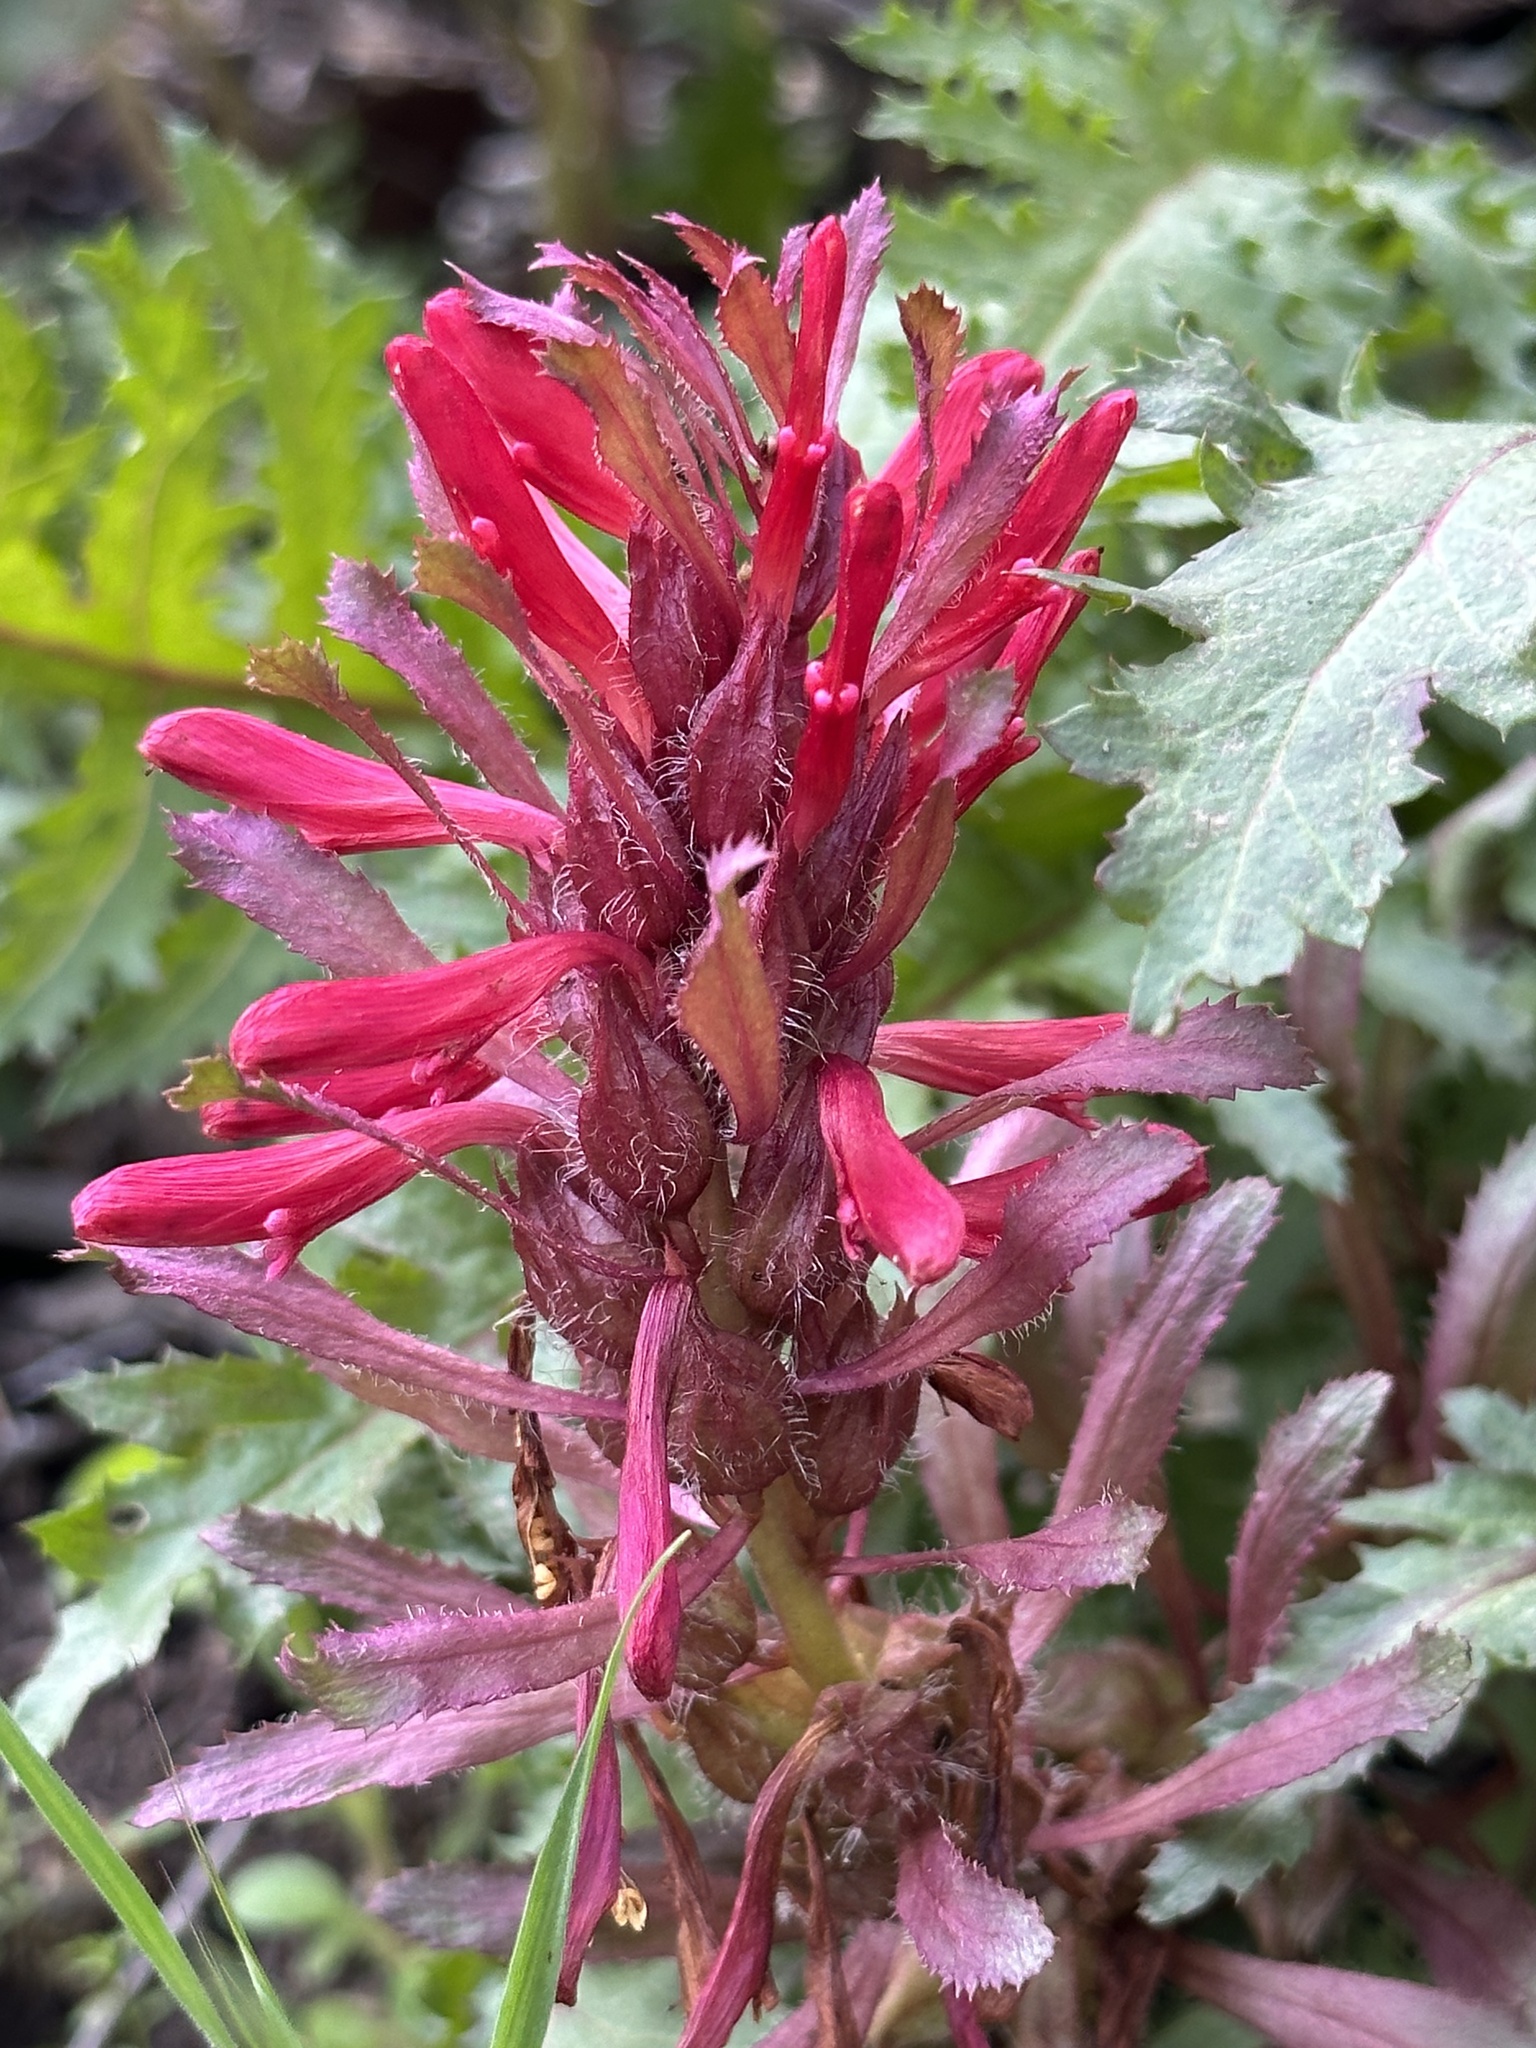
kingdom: Plantae
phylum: Tracheophyta
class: Magnoliopsida
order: Lamiales
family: Orobanchaceae
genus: Pedicularis
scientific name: Pedicularis densiflora
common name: Indian warrior
